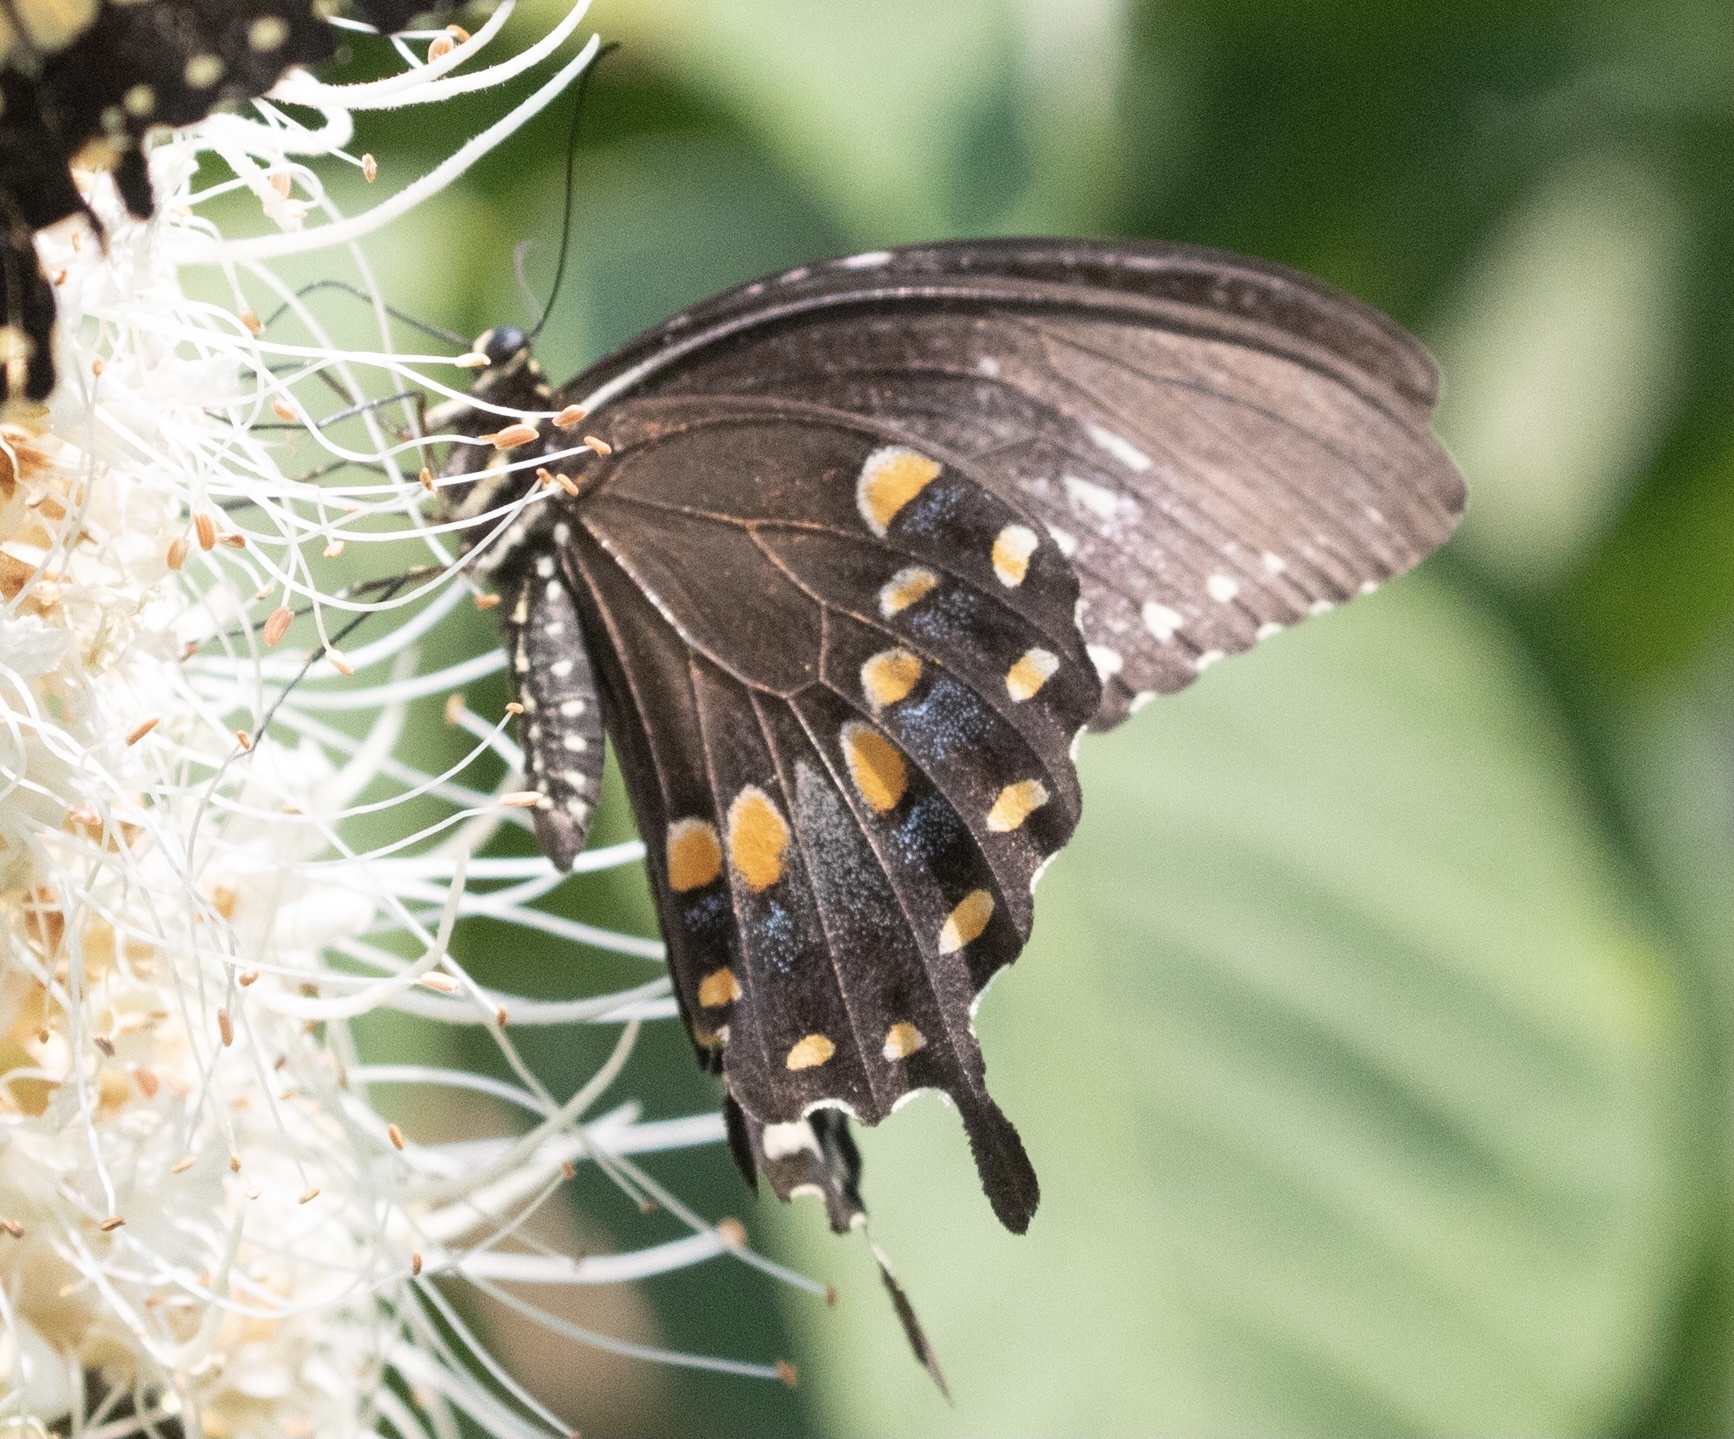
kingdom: Animalia
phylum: Arthropoda
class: Insecta
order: Lepidoptera
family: Papilionidae
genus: Papilio
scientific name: Papilio troilus
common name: Spicebush swallowtail
